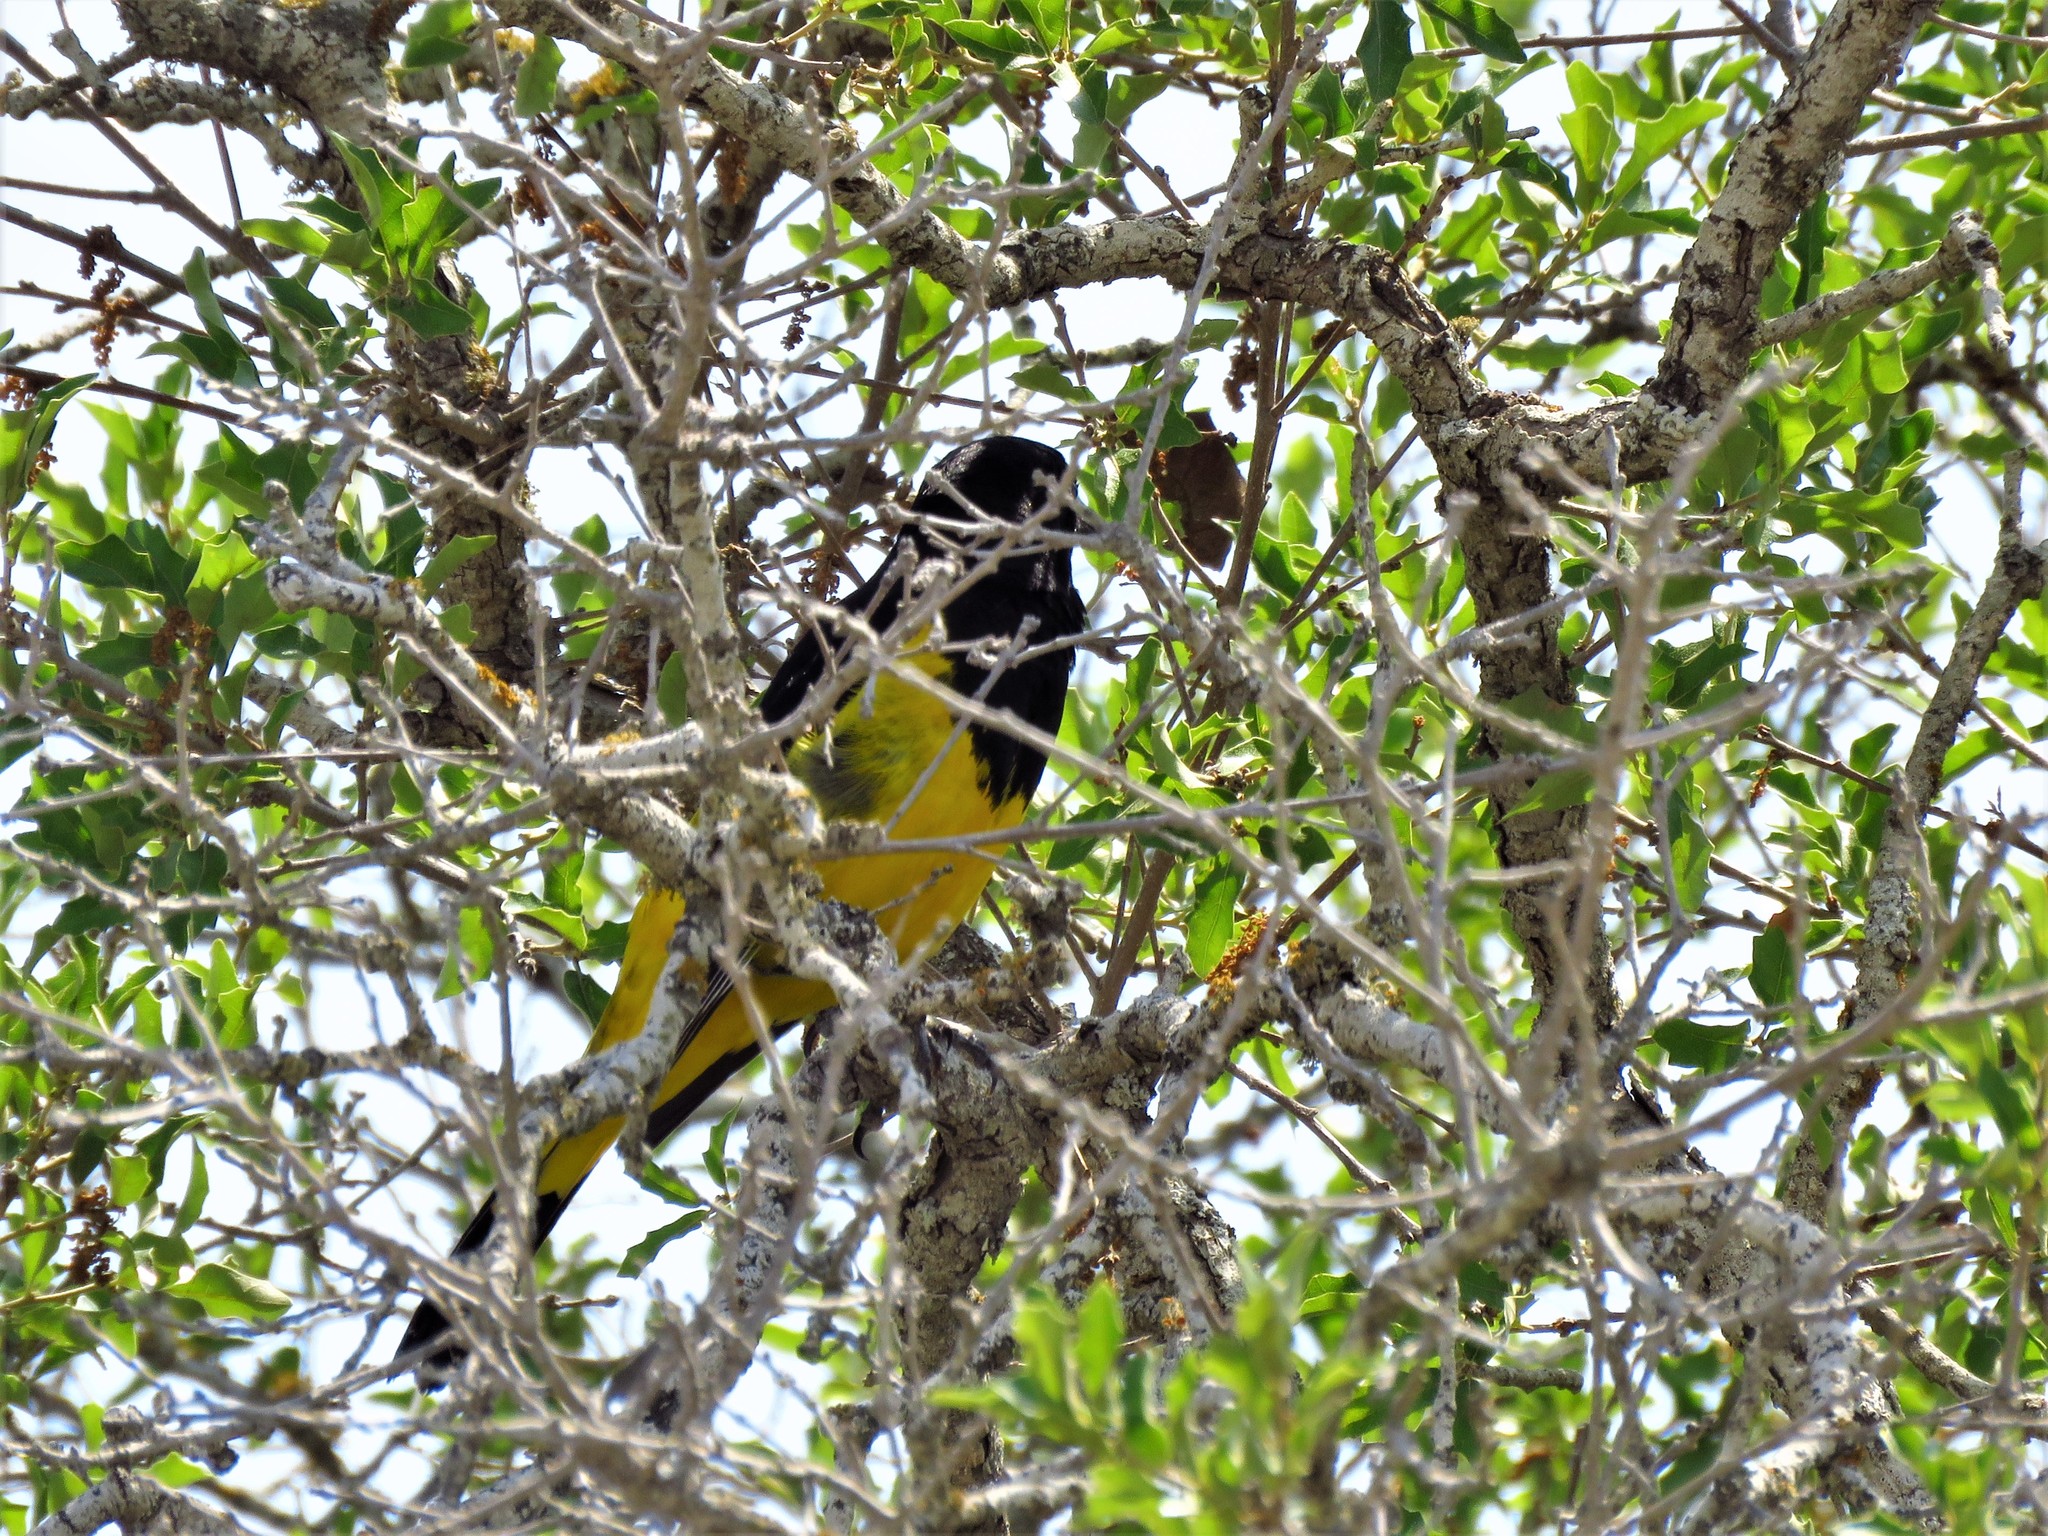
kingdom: Animalia
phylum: Chordata
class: Aves
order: Passeriformes
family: Icteridae
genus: Icterus
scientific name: Icterus parisorum
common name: Scott's oriole
